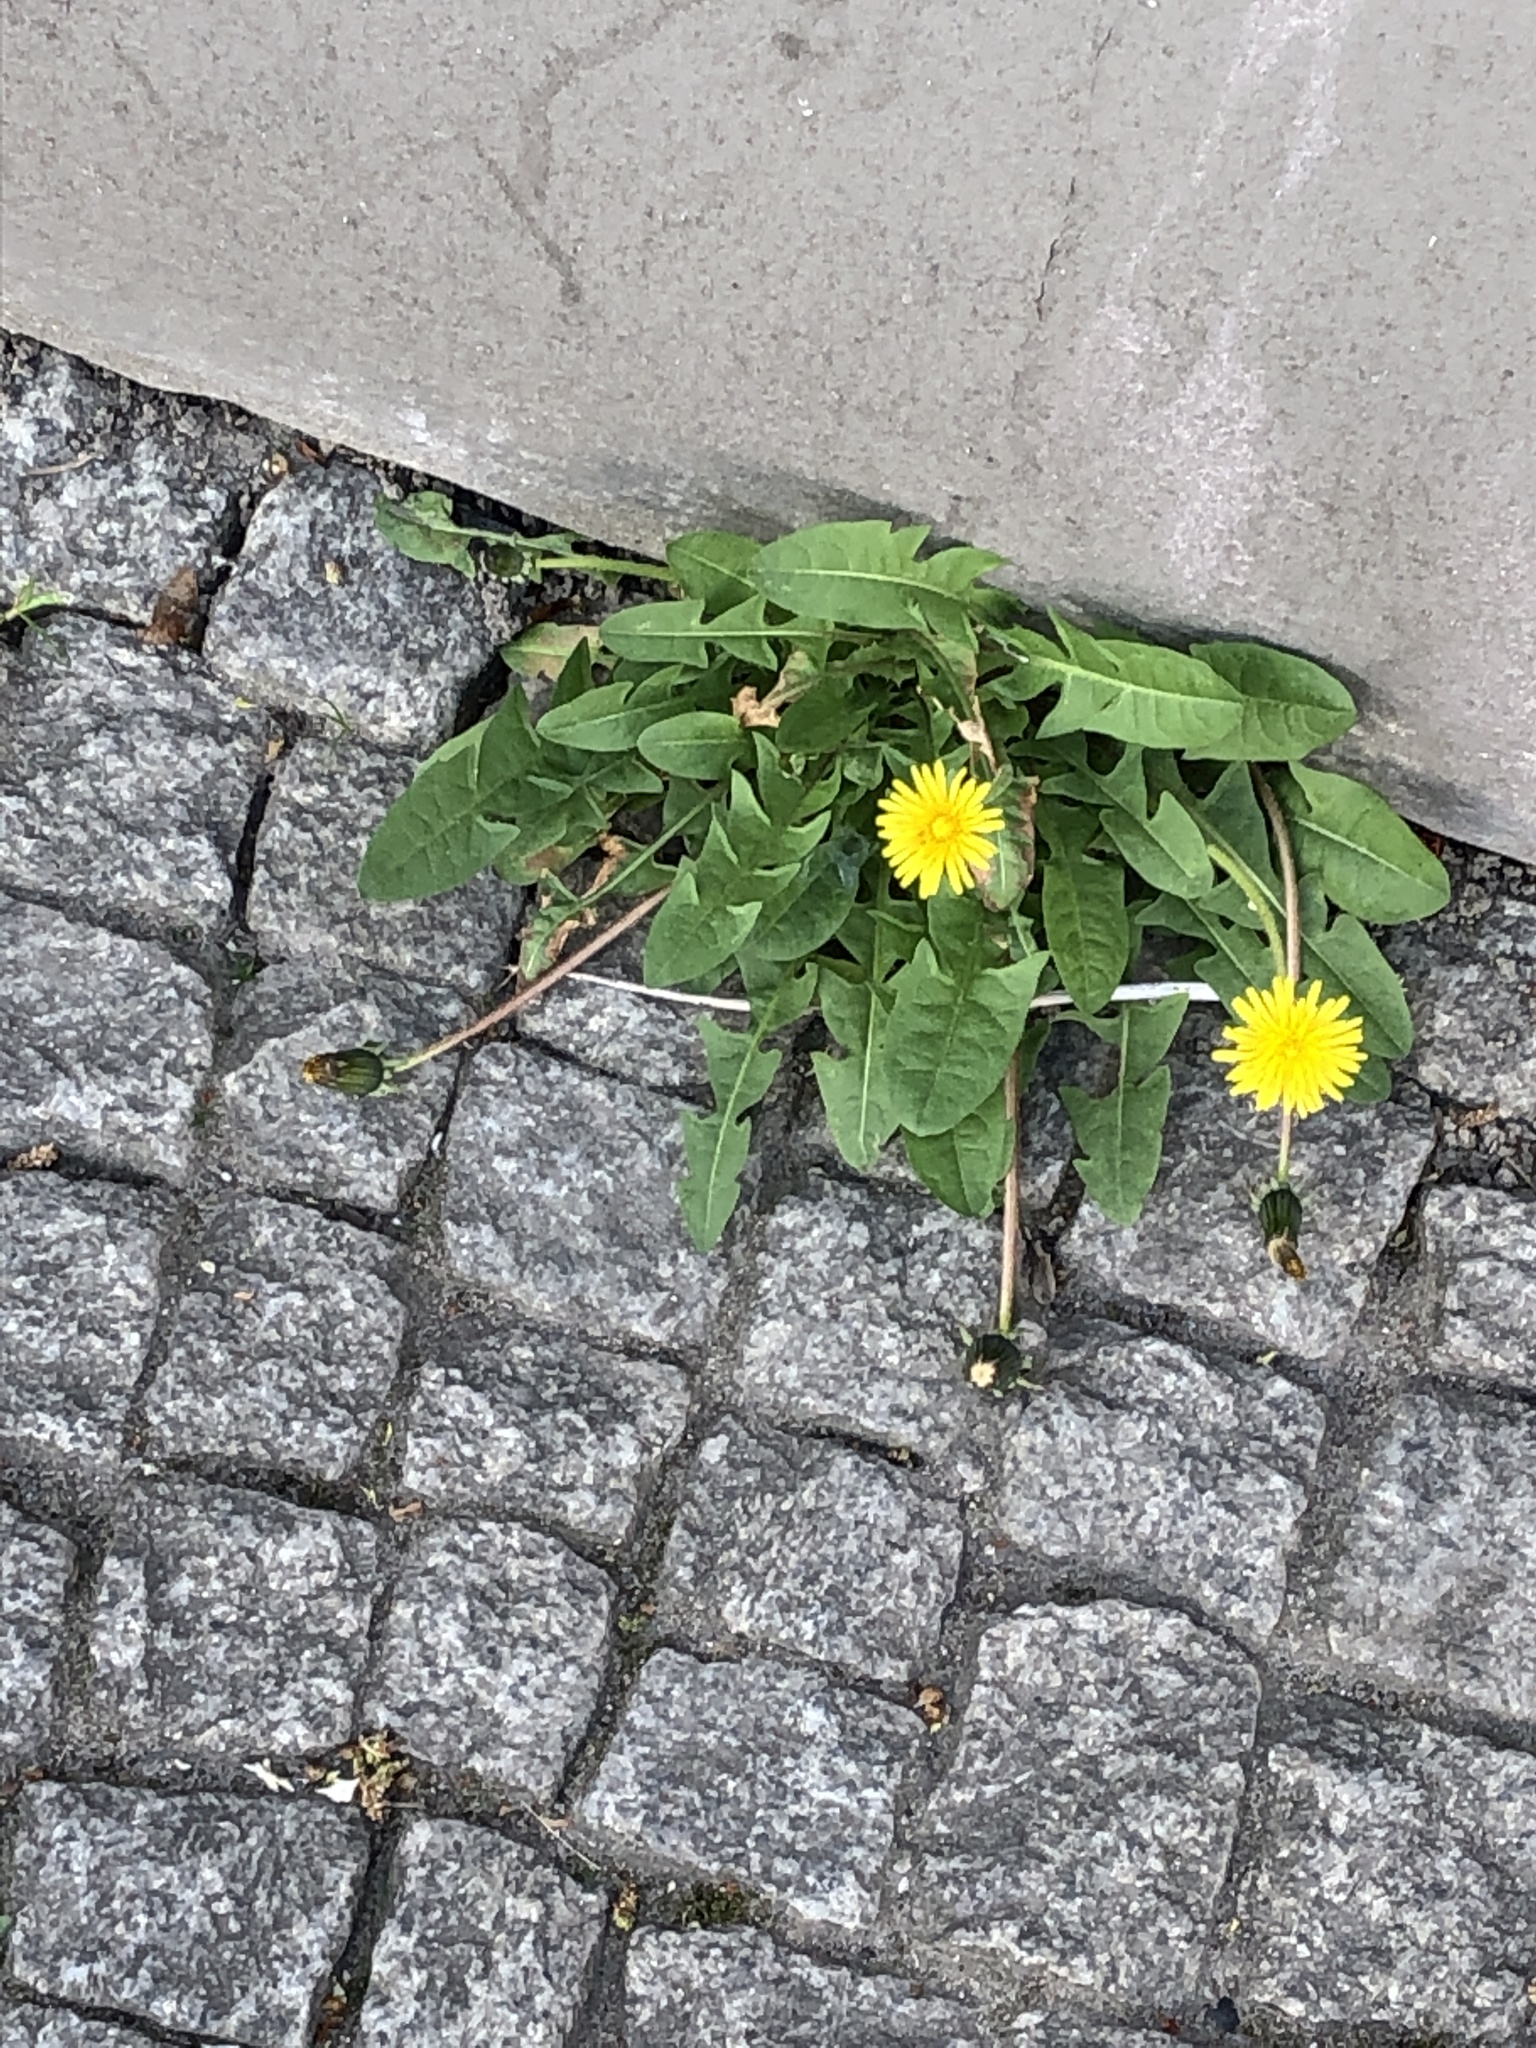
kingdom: Plantae
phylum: Tracheophyta
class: Magnoliopsida
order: Asterales
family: Asteraceae
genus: Taraxacum
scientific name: Taraxacum officinale
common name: Common dandelion
